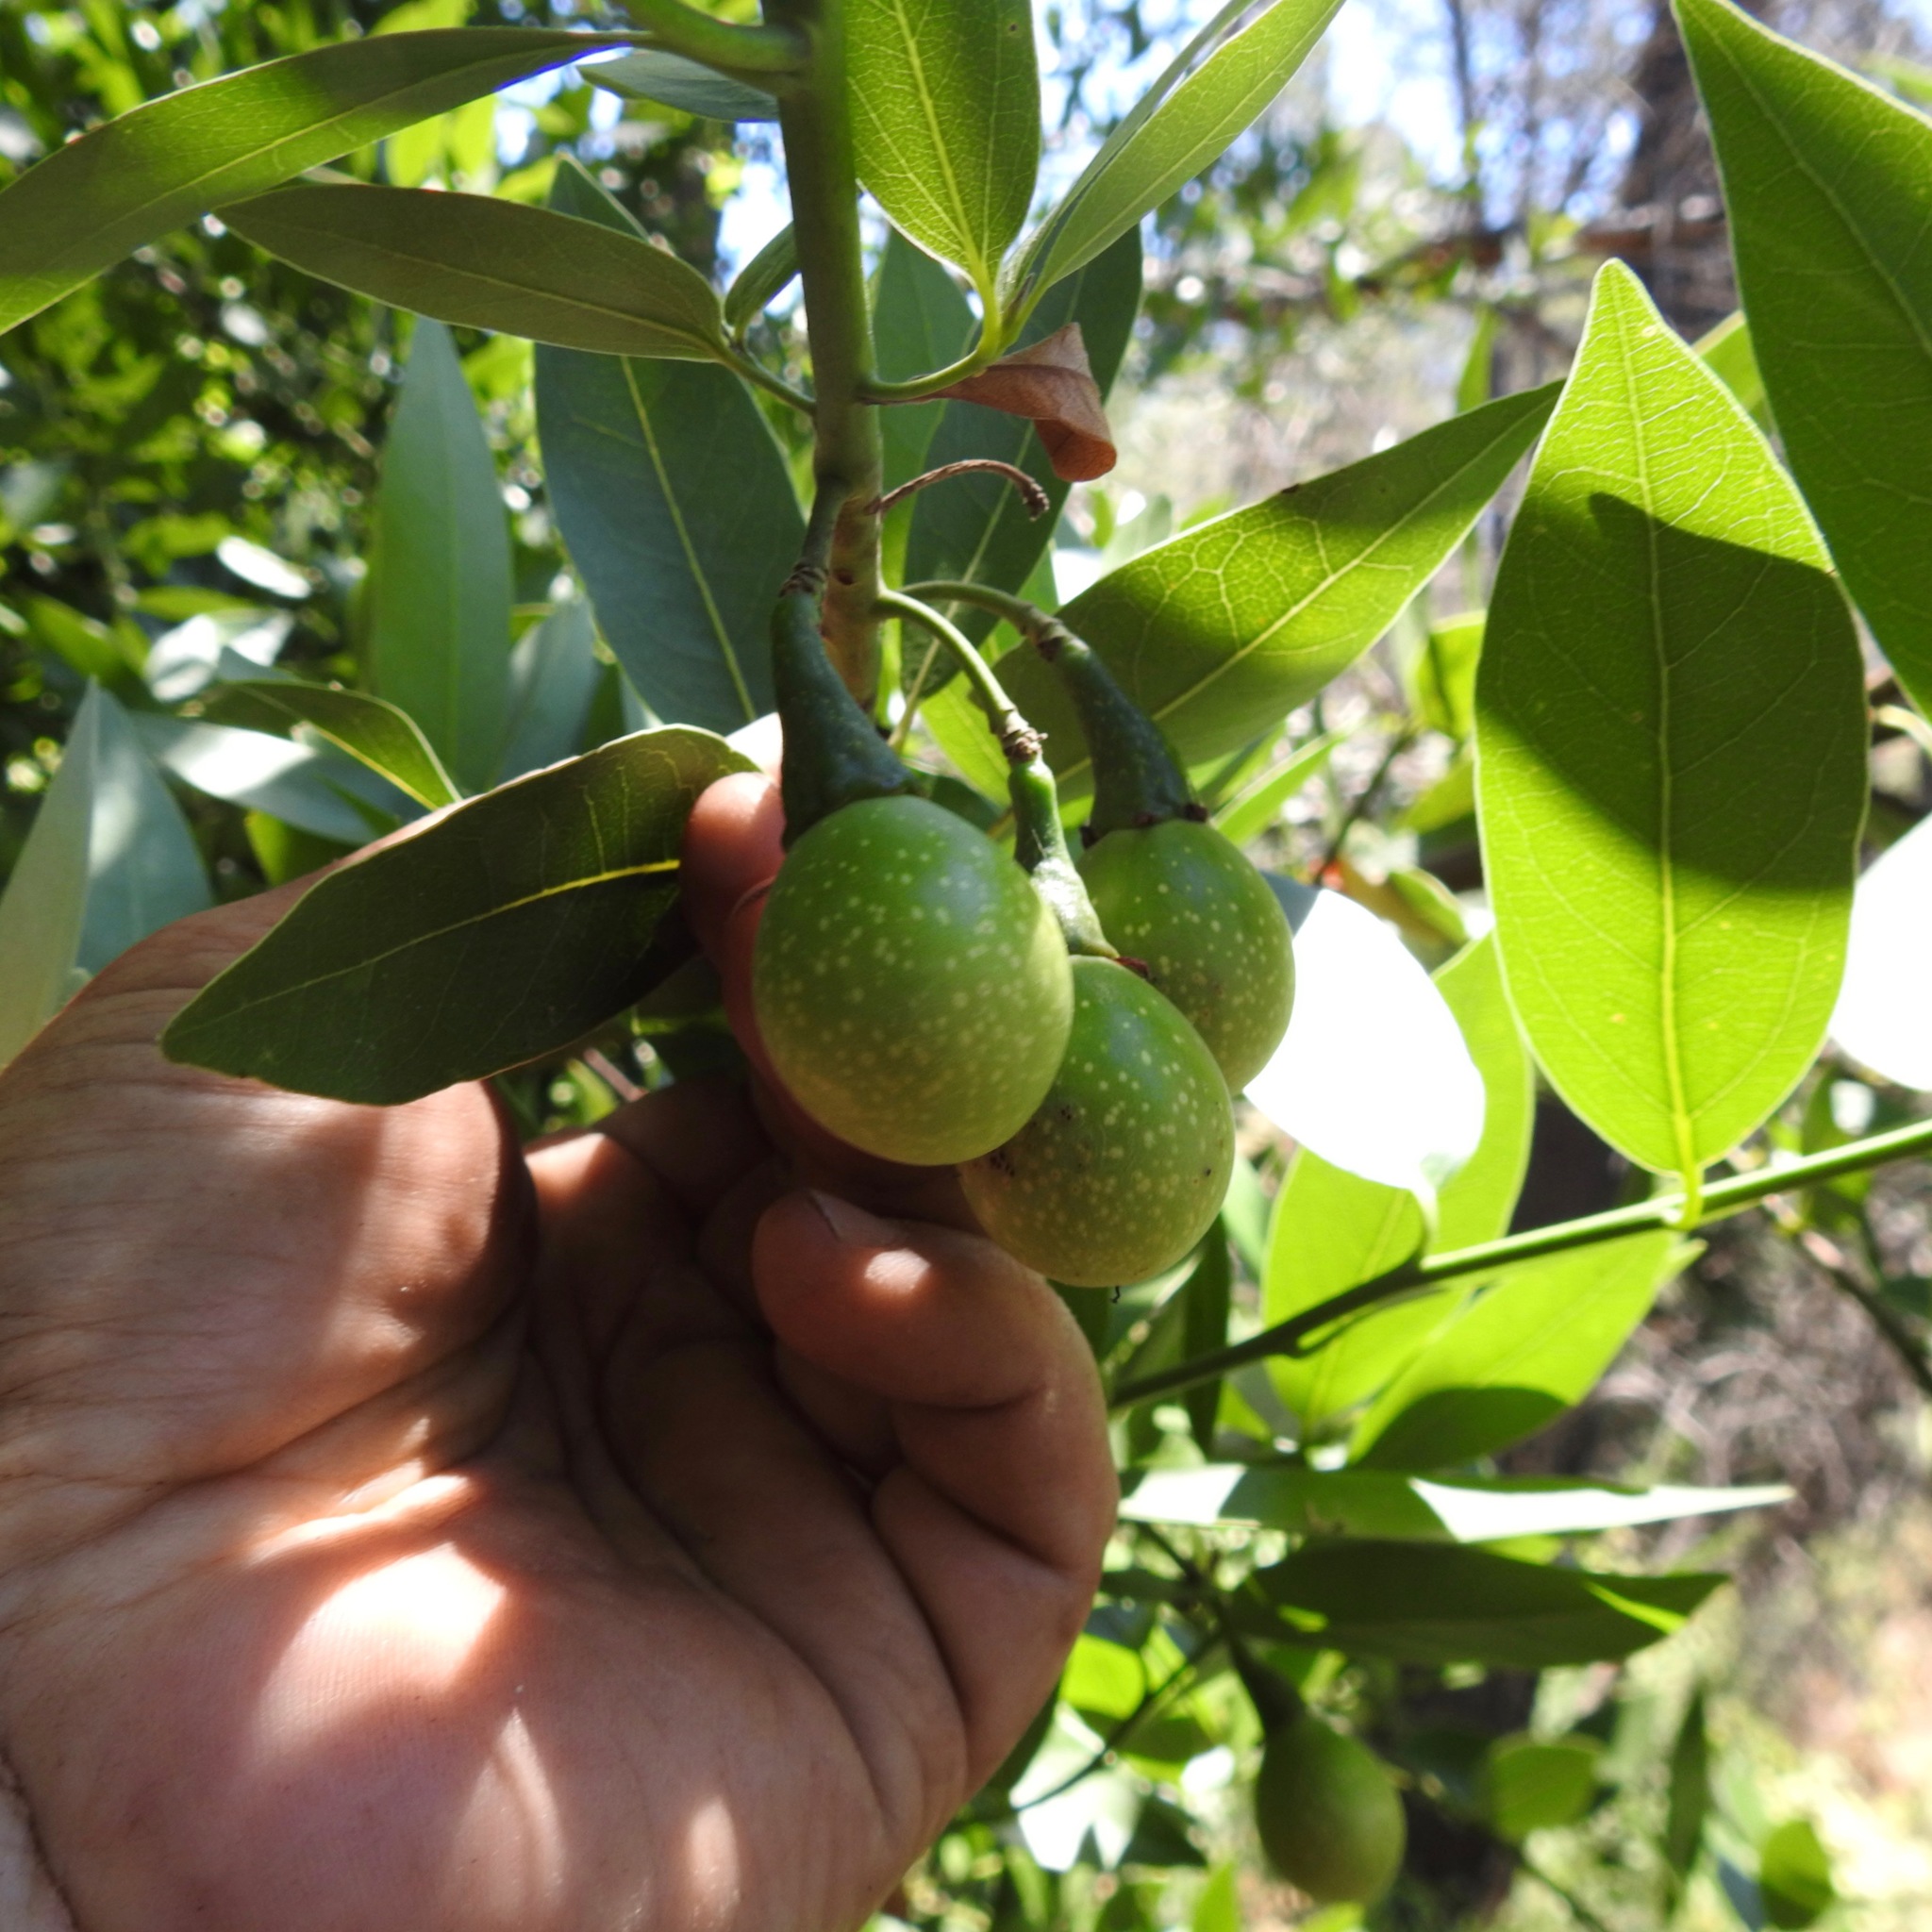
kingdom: Plantae
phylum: Tracheophyta
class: Magnoliopsida
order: Laurales
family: Lauraceae
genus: Umbellularia
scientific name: Umbellularia californica
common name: California bay
